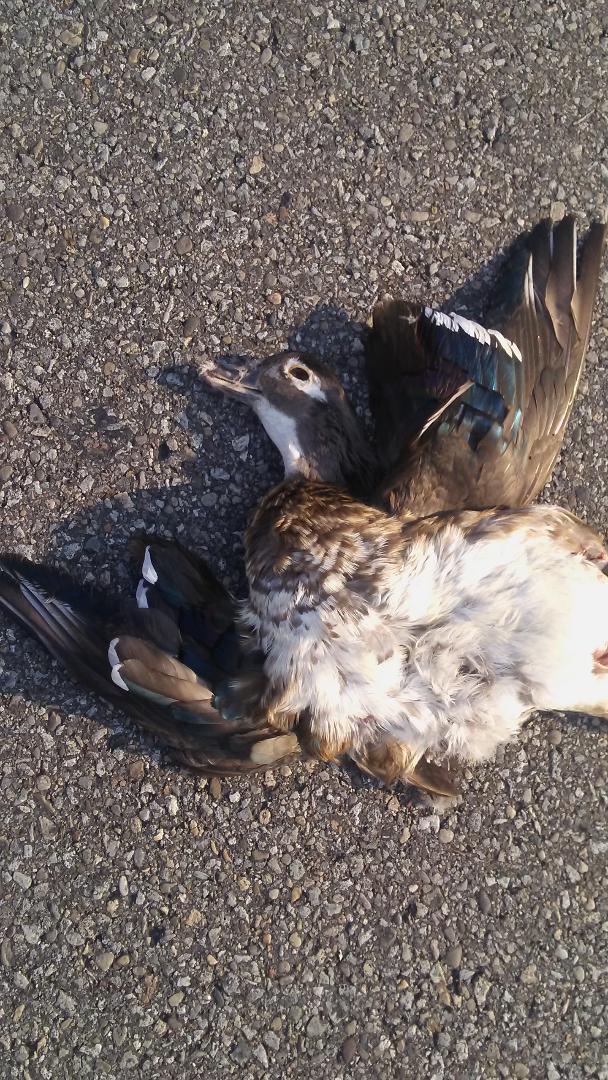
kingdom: Animalia
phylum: Chordata
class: Aves
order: Anseriformes
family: Anatidae
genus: Aix
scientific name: Aix sponsa
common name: Wood duck
